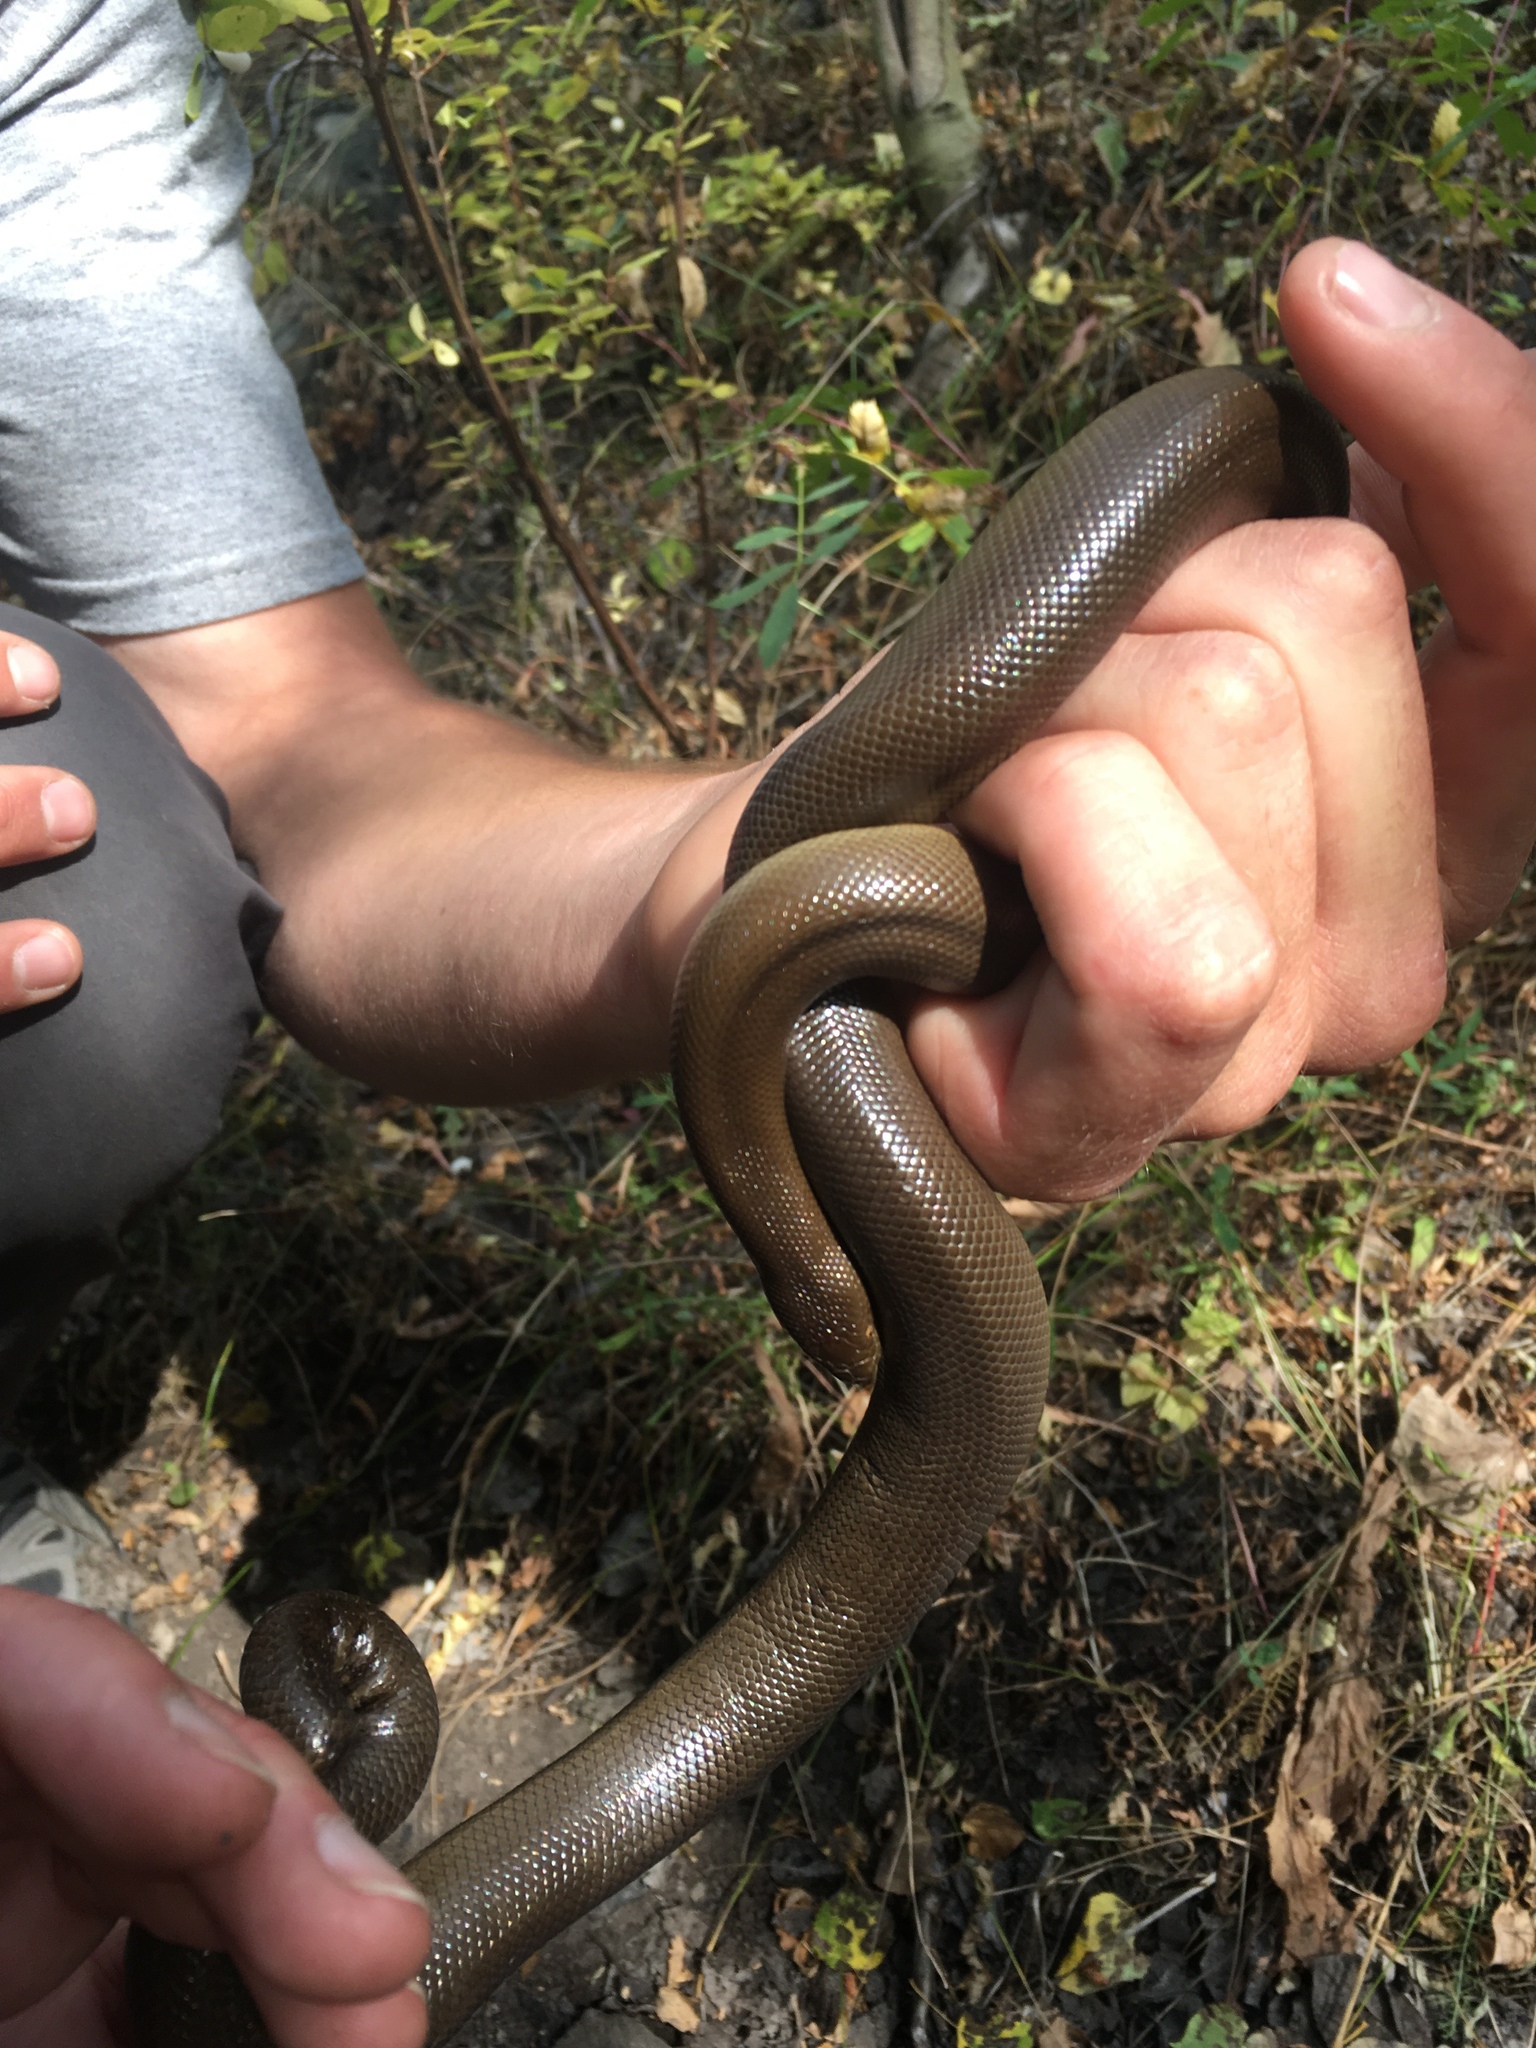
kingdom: Animalia
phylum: Chordata
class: Squamata
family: Boidae
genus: Charina
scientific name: Charina bottae
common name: Northern rubber boa
